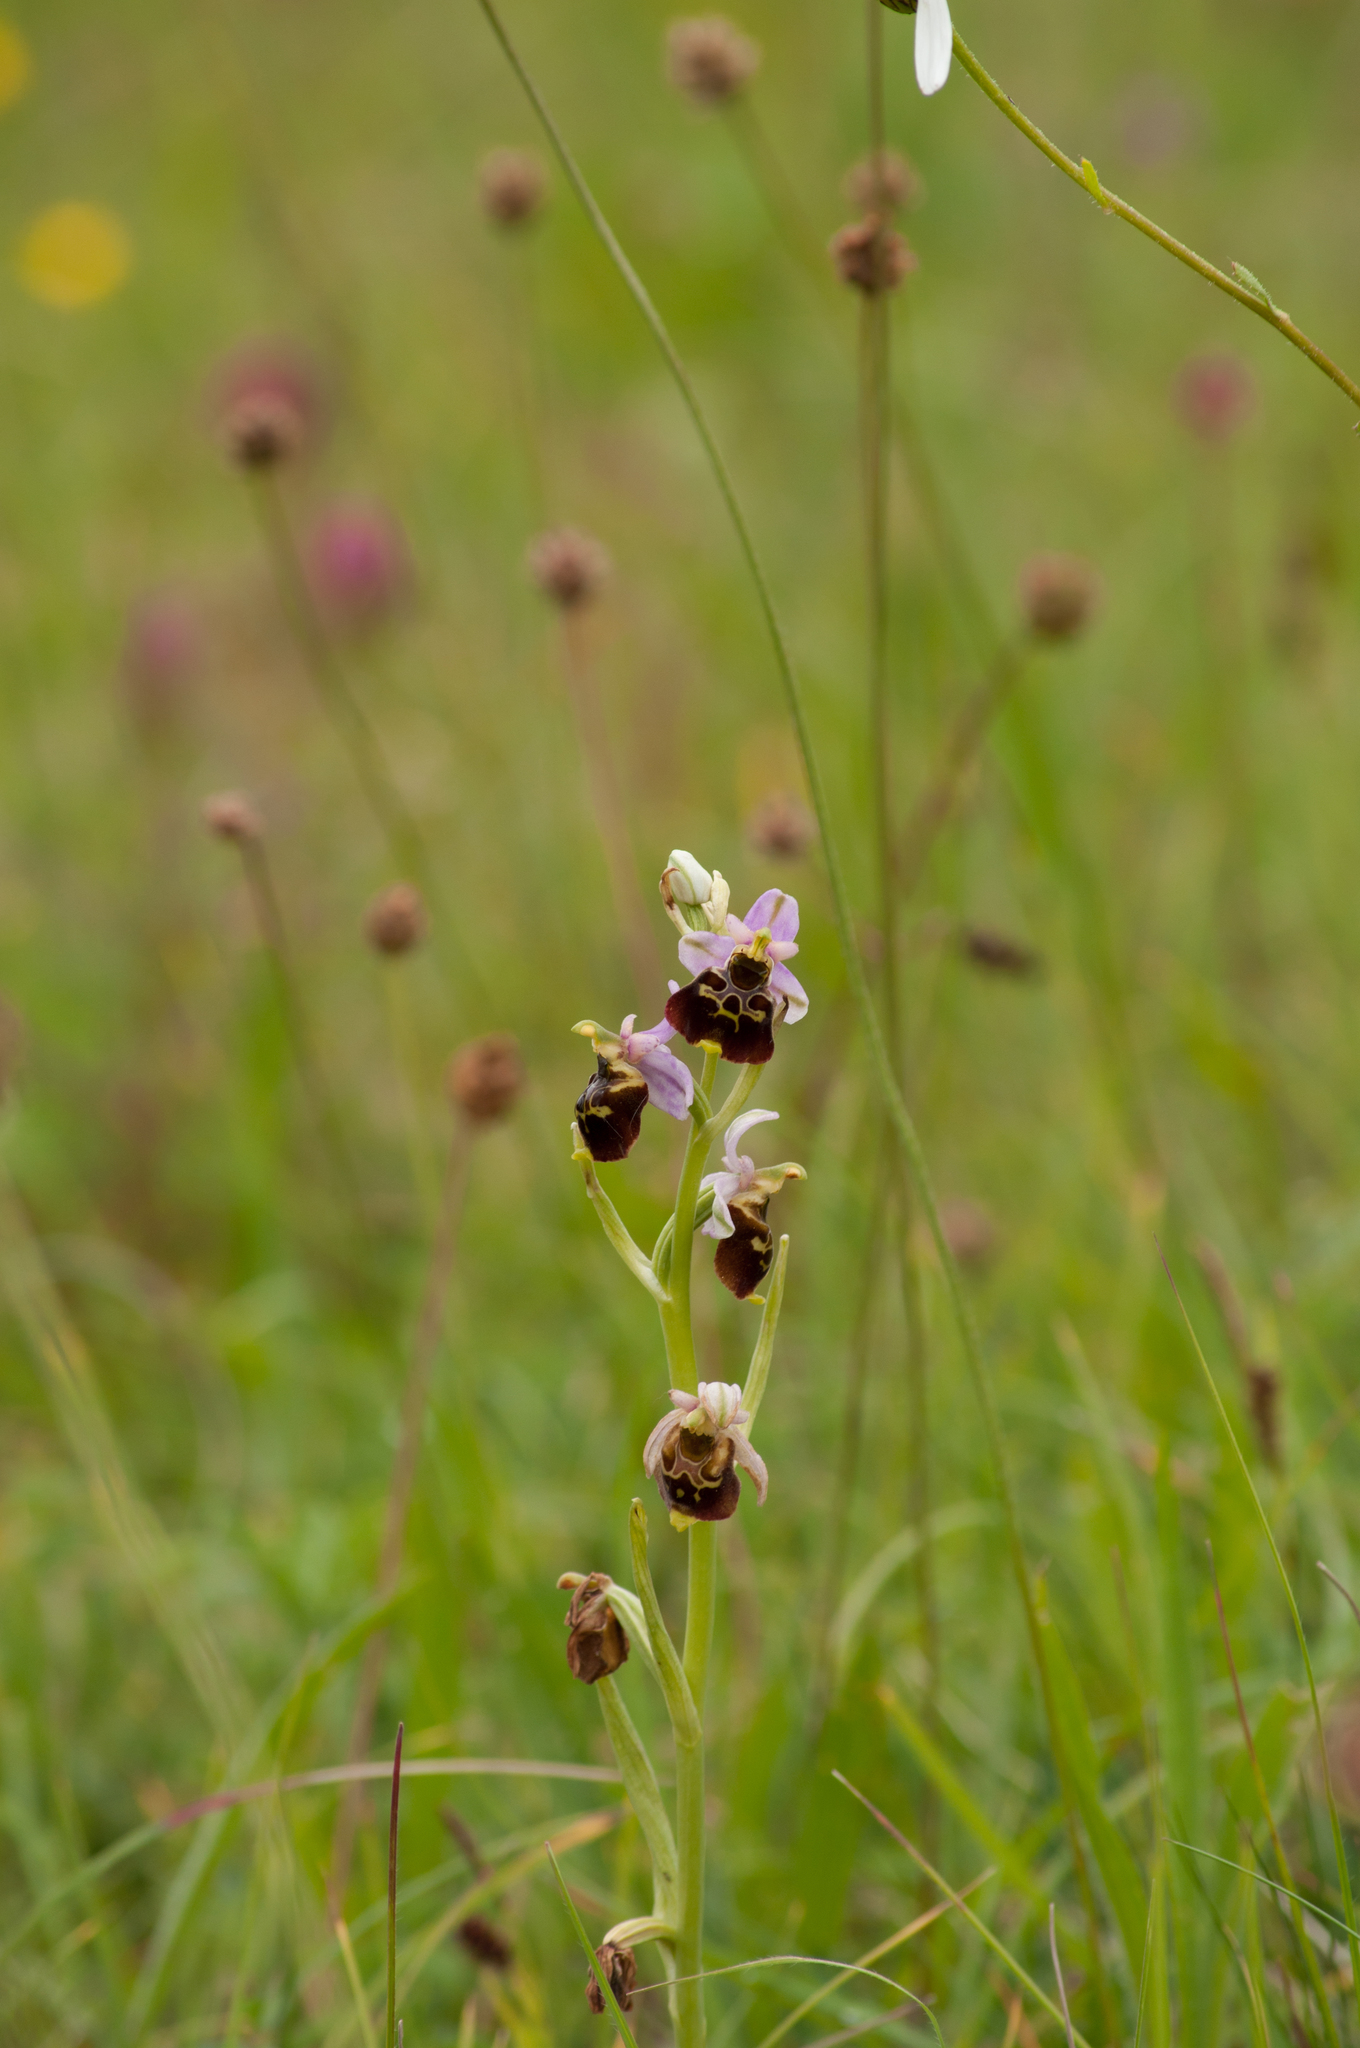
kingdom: Plantae
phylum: Tracheophyta
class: Liliopsida
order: Asparagales
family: Orchidaceae
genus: Ophrys
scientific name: Ophrys holosericea
